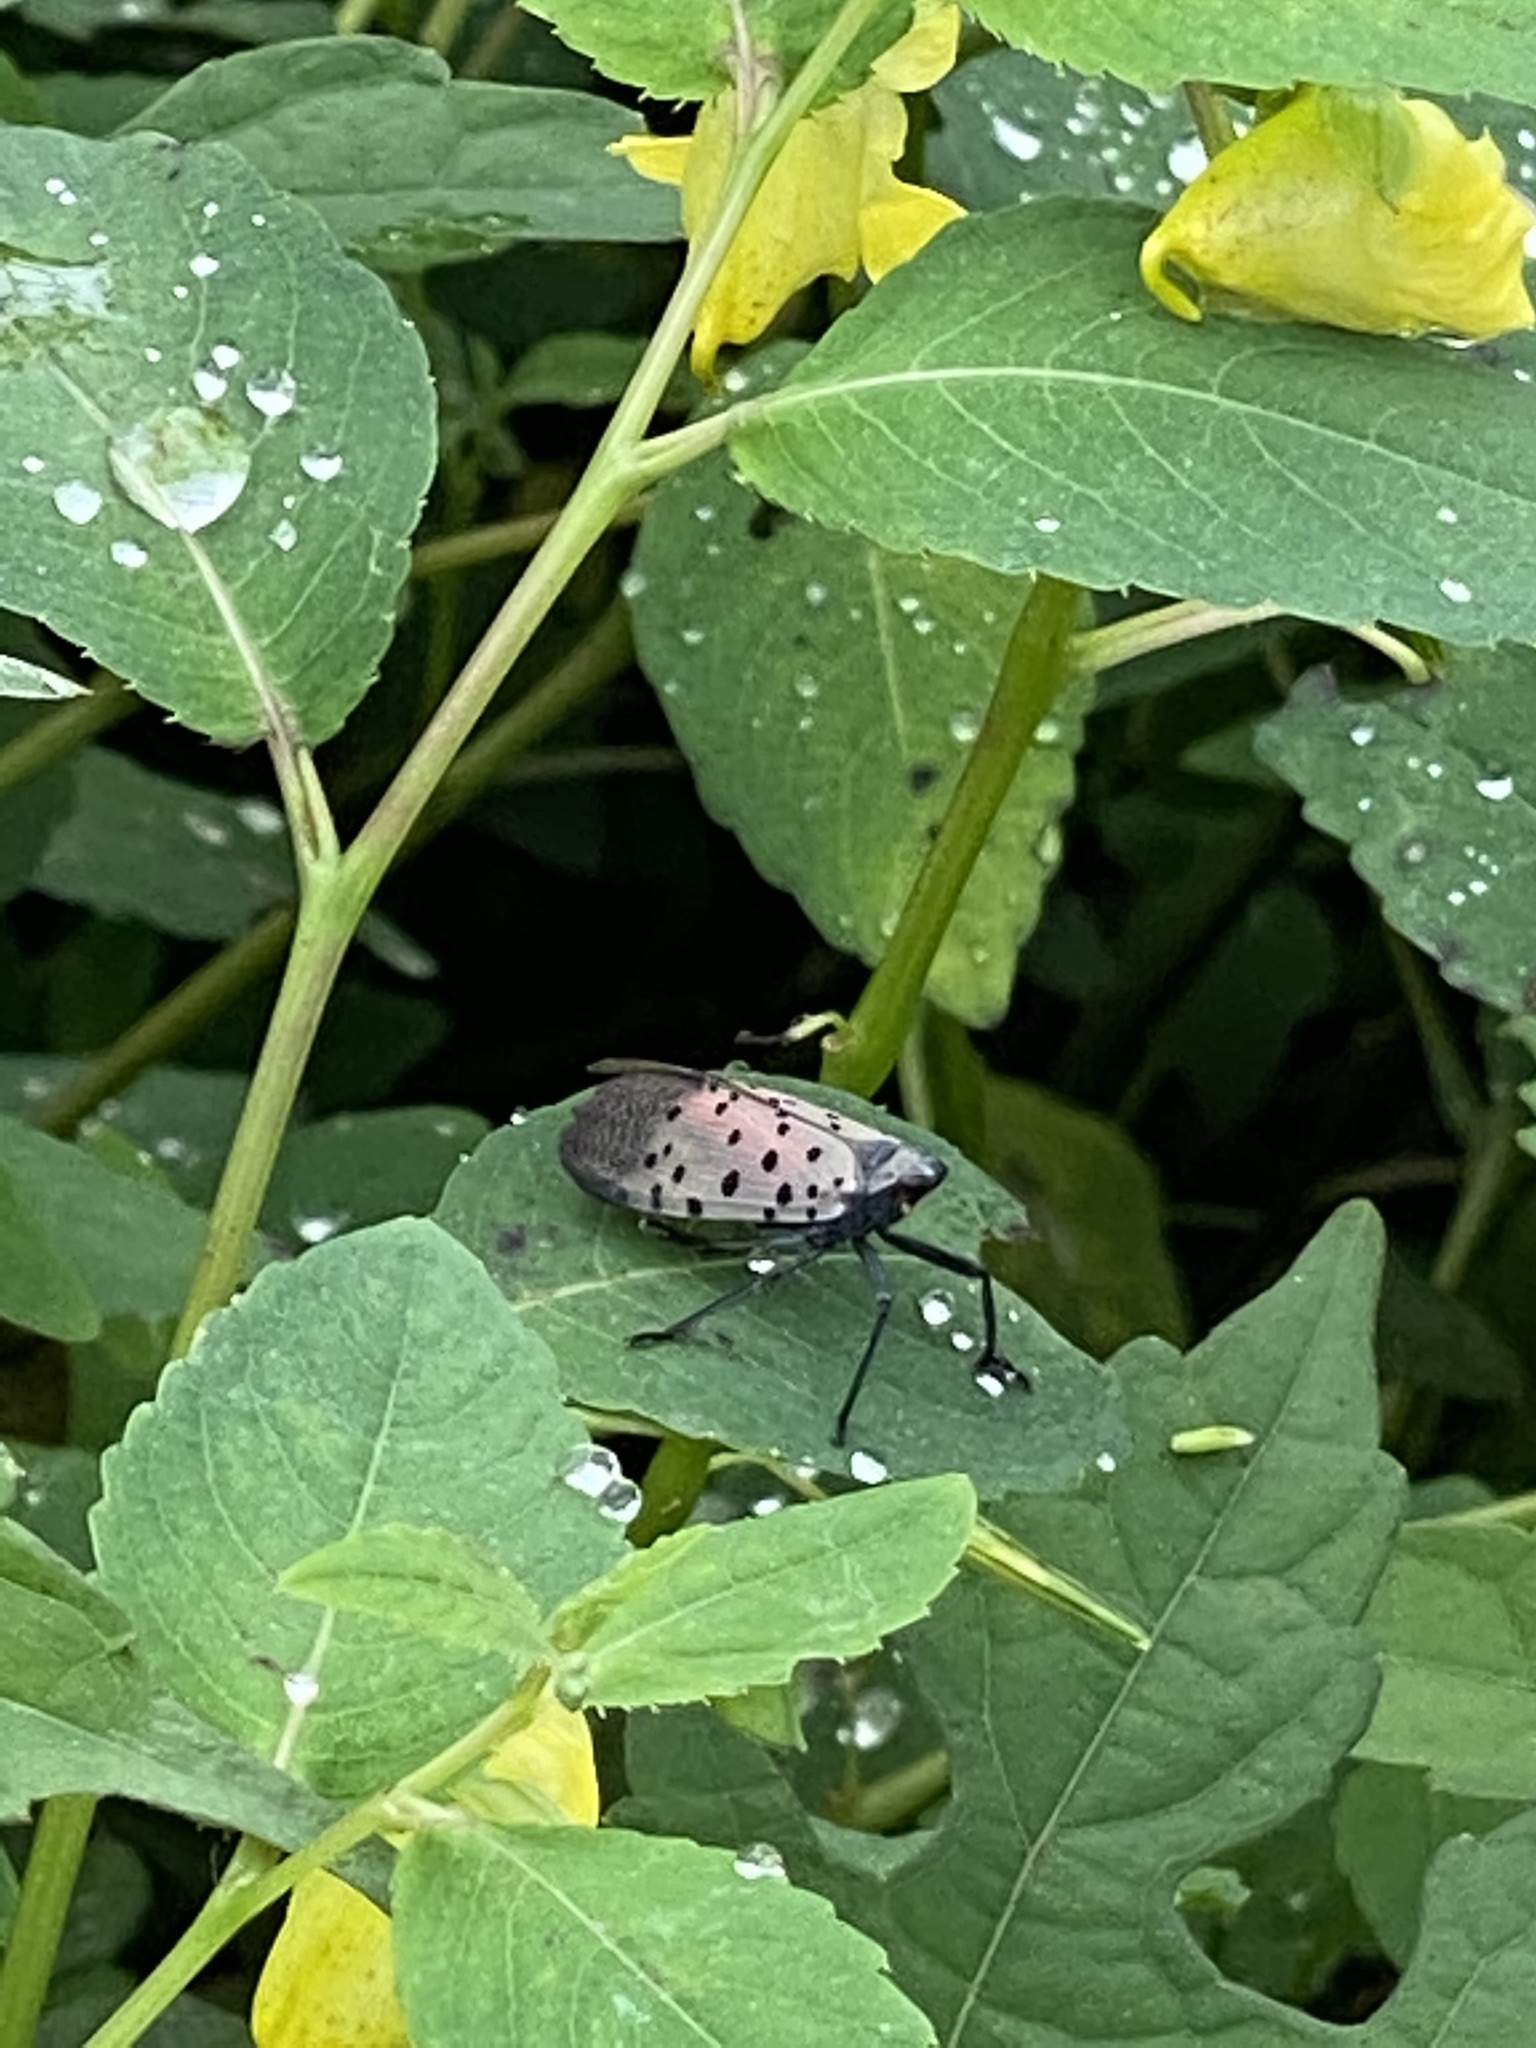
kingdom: Animalia
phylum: Arthropoda
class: Insecta
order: Hemiptera
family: Fulgoridae
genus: Lycorma
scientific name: Lycorma delicatula
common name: Spotted lanternfly
